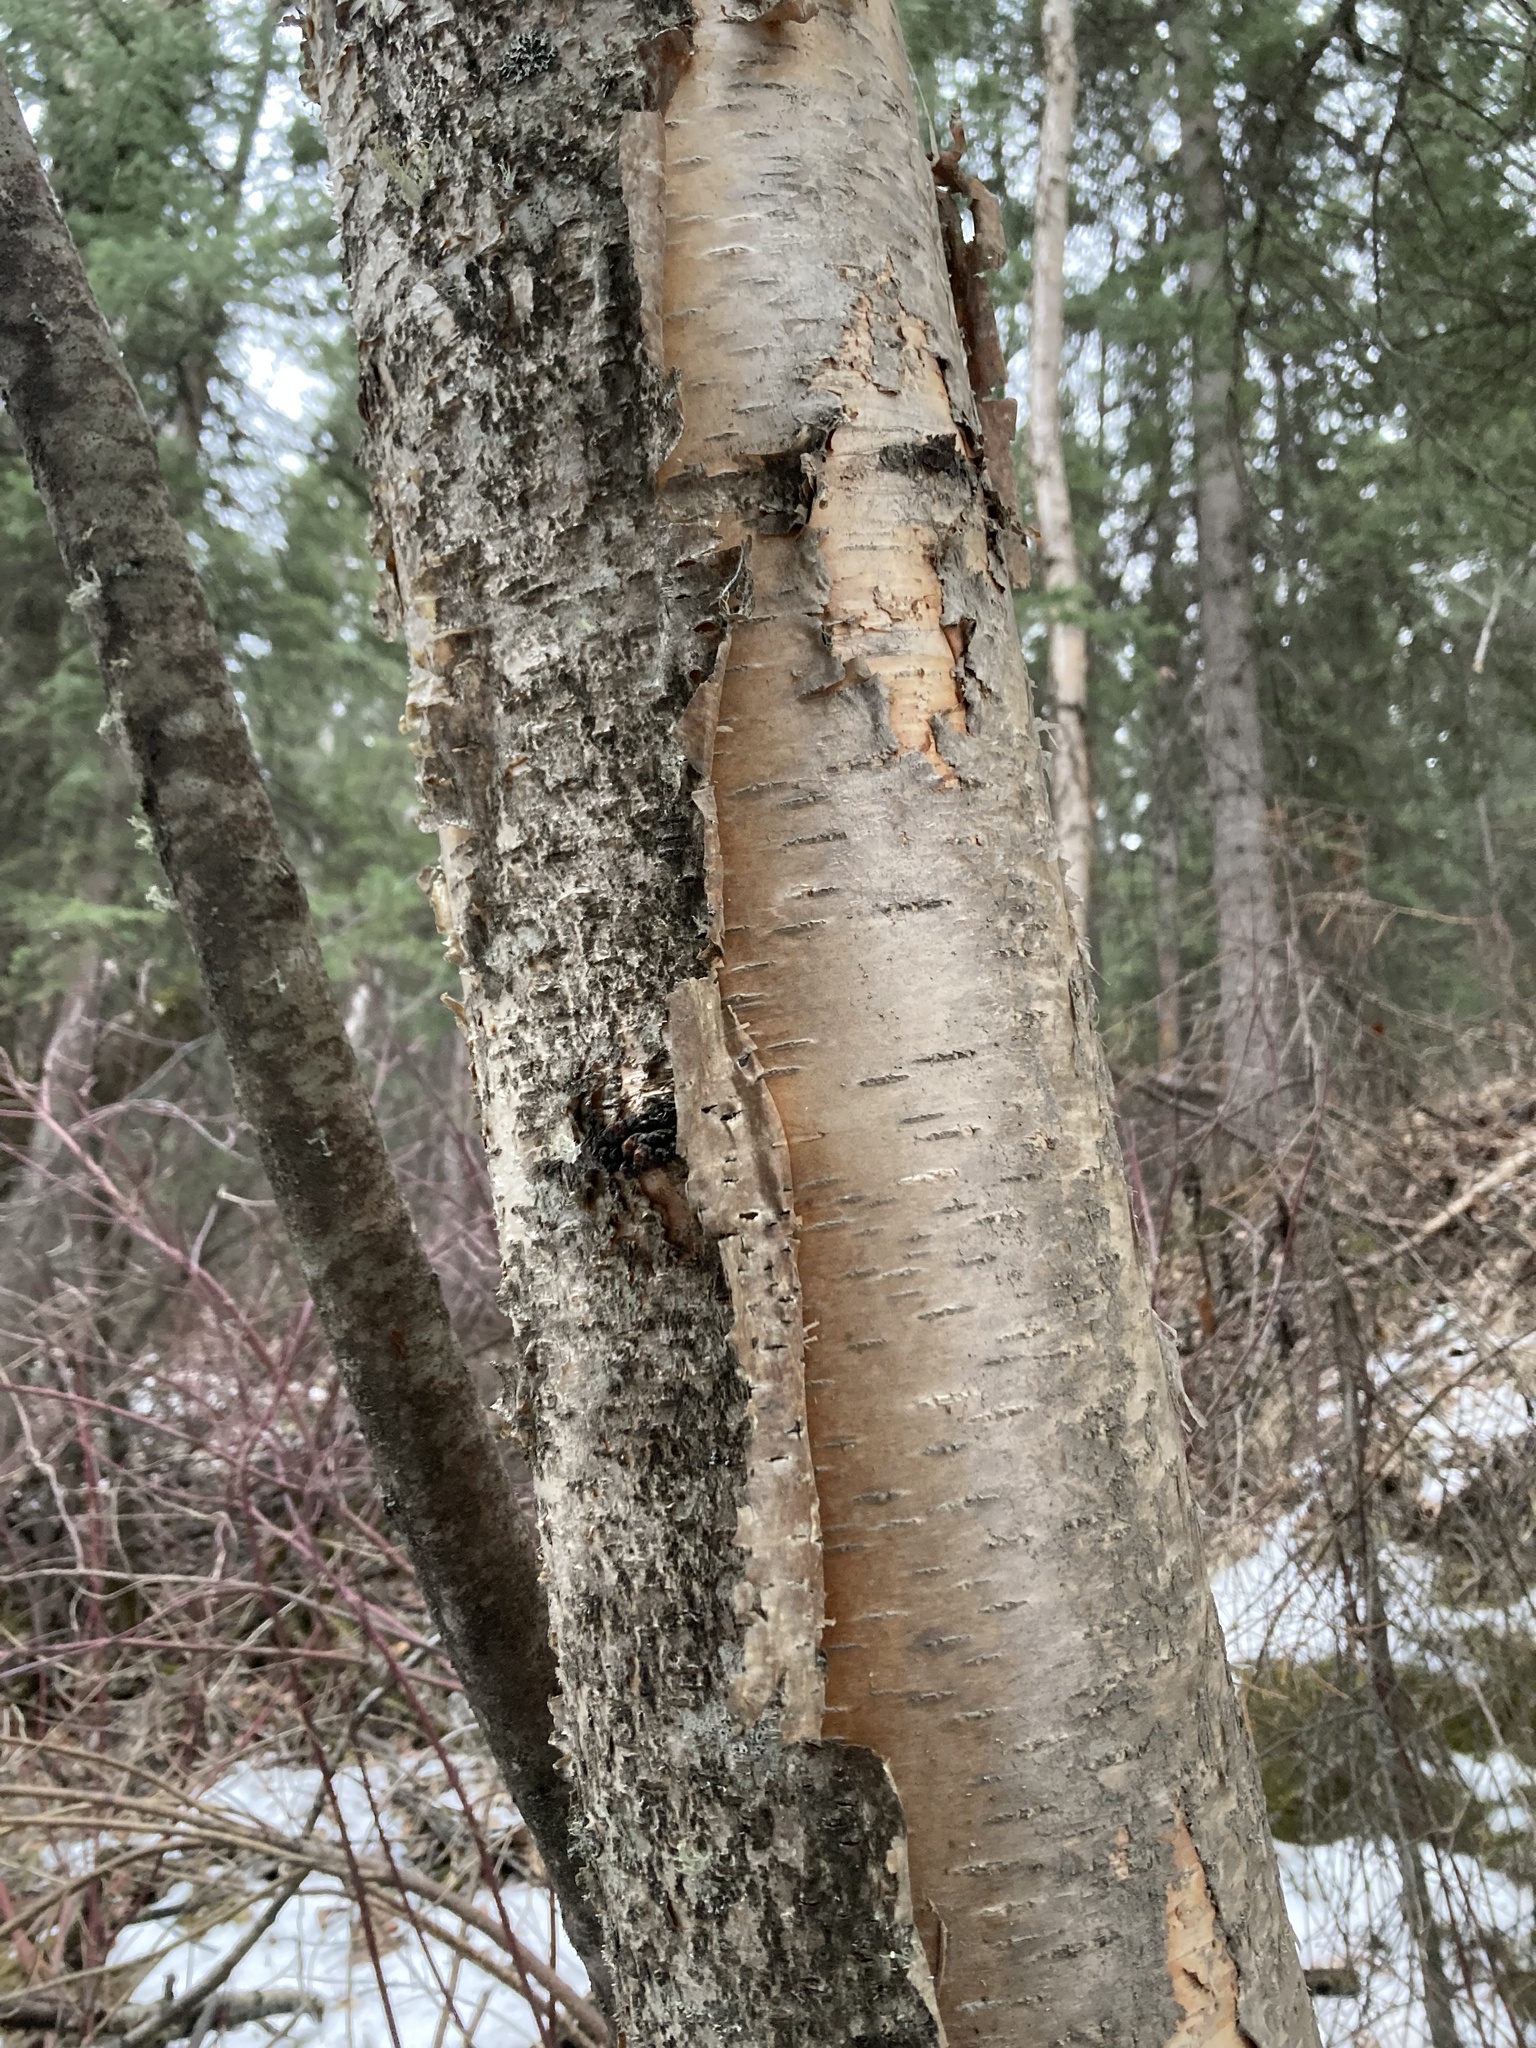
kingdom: Plantae
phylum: Tracheophyta
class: Magnoliopsida
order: Fagales
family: Betulaceae
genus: Betula
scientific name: Betula papyrifera
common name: Paper birch
